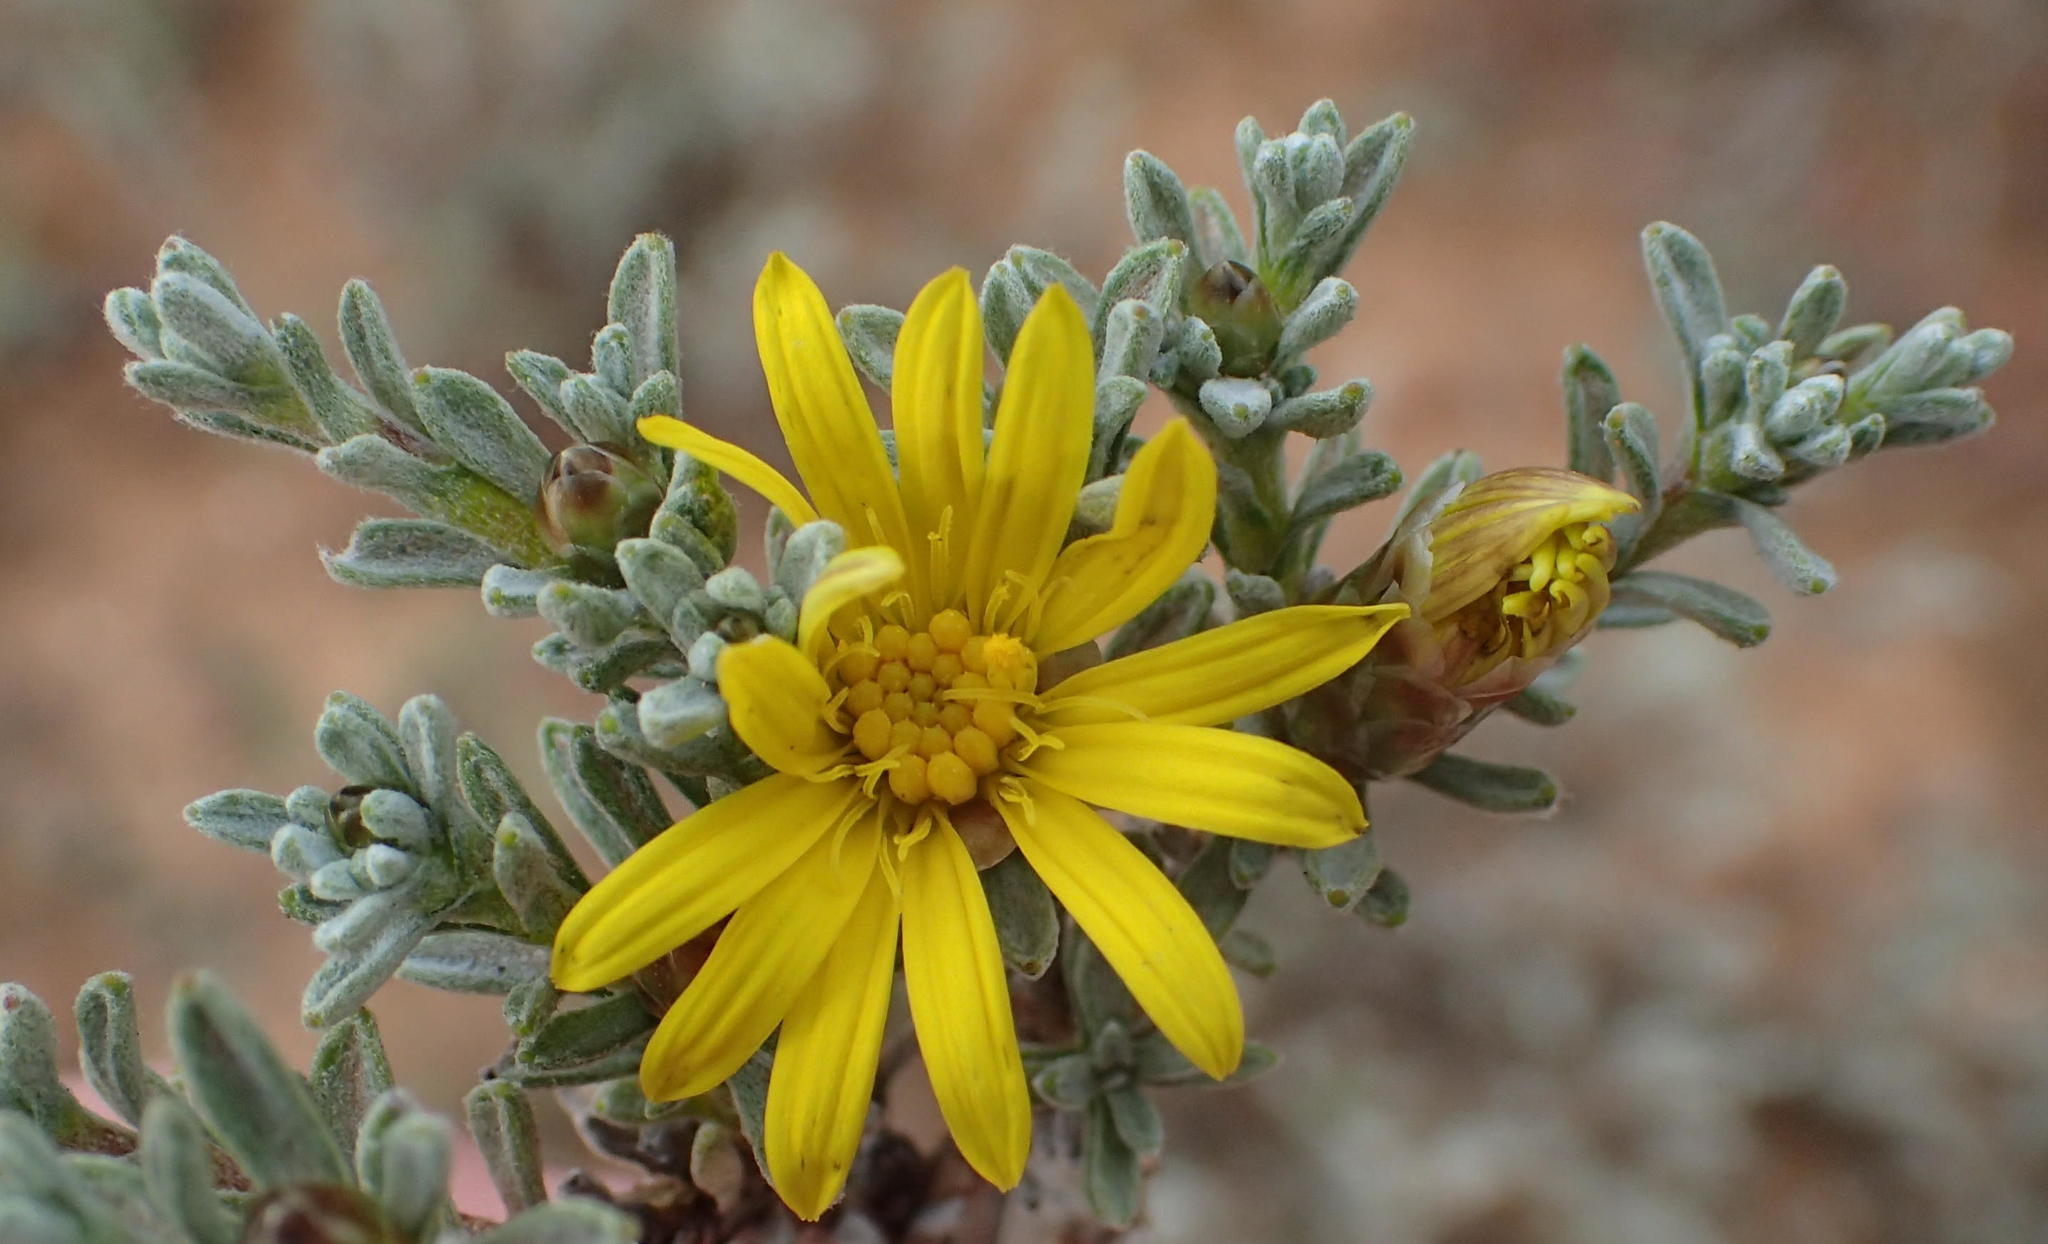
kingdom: Plantae
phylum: Tracheophyta
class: Magnoliopsida
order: Asterales
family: Asteraceae
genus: Oedera
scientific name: Oedera oppositifolia
